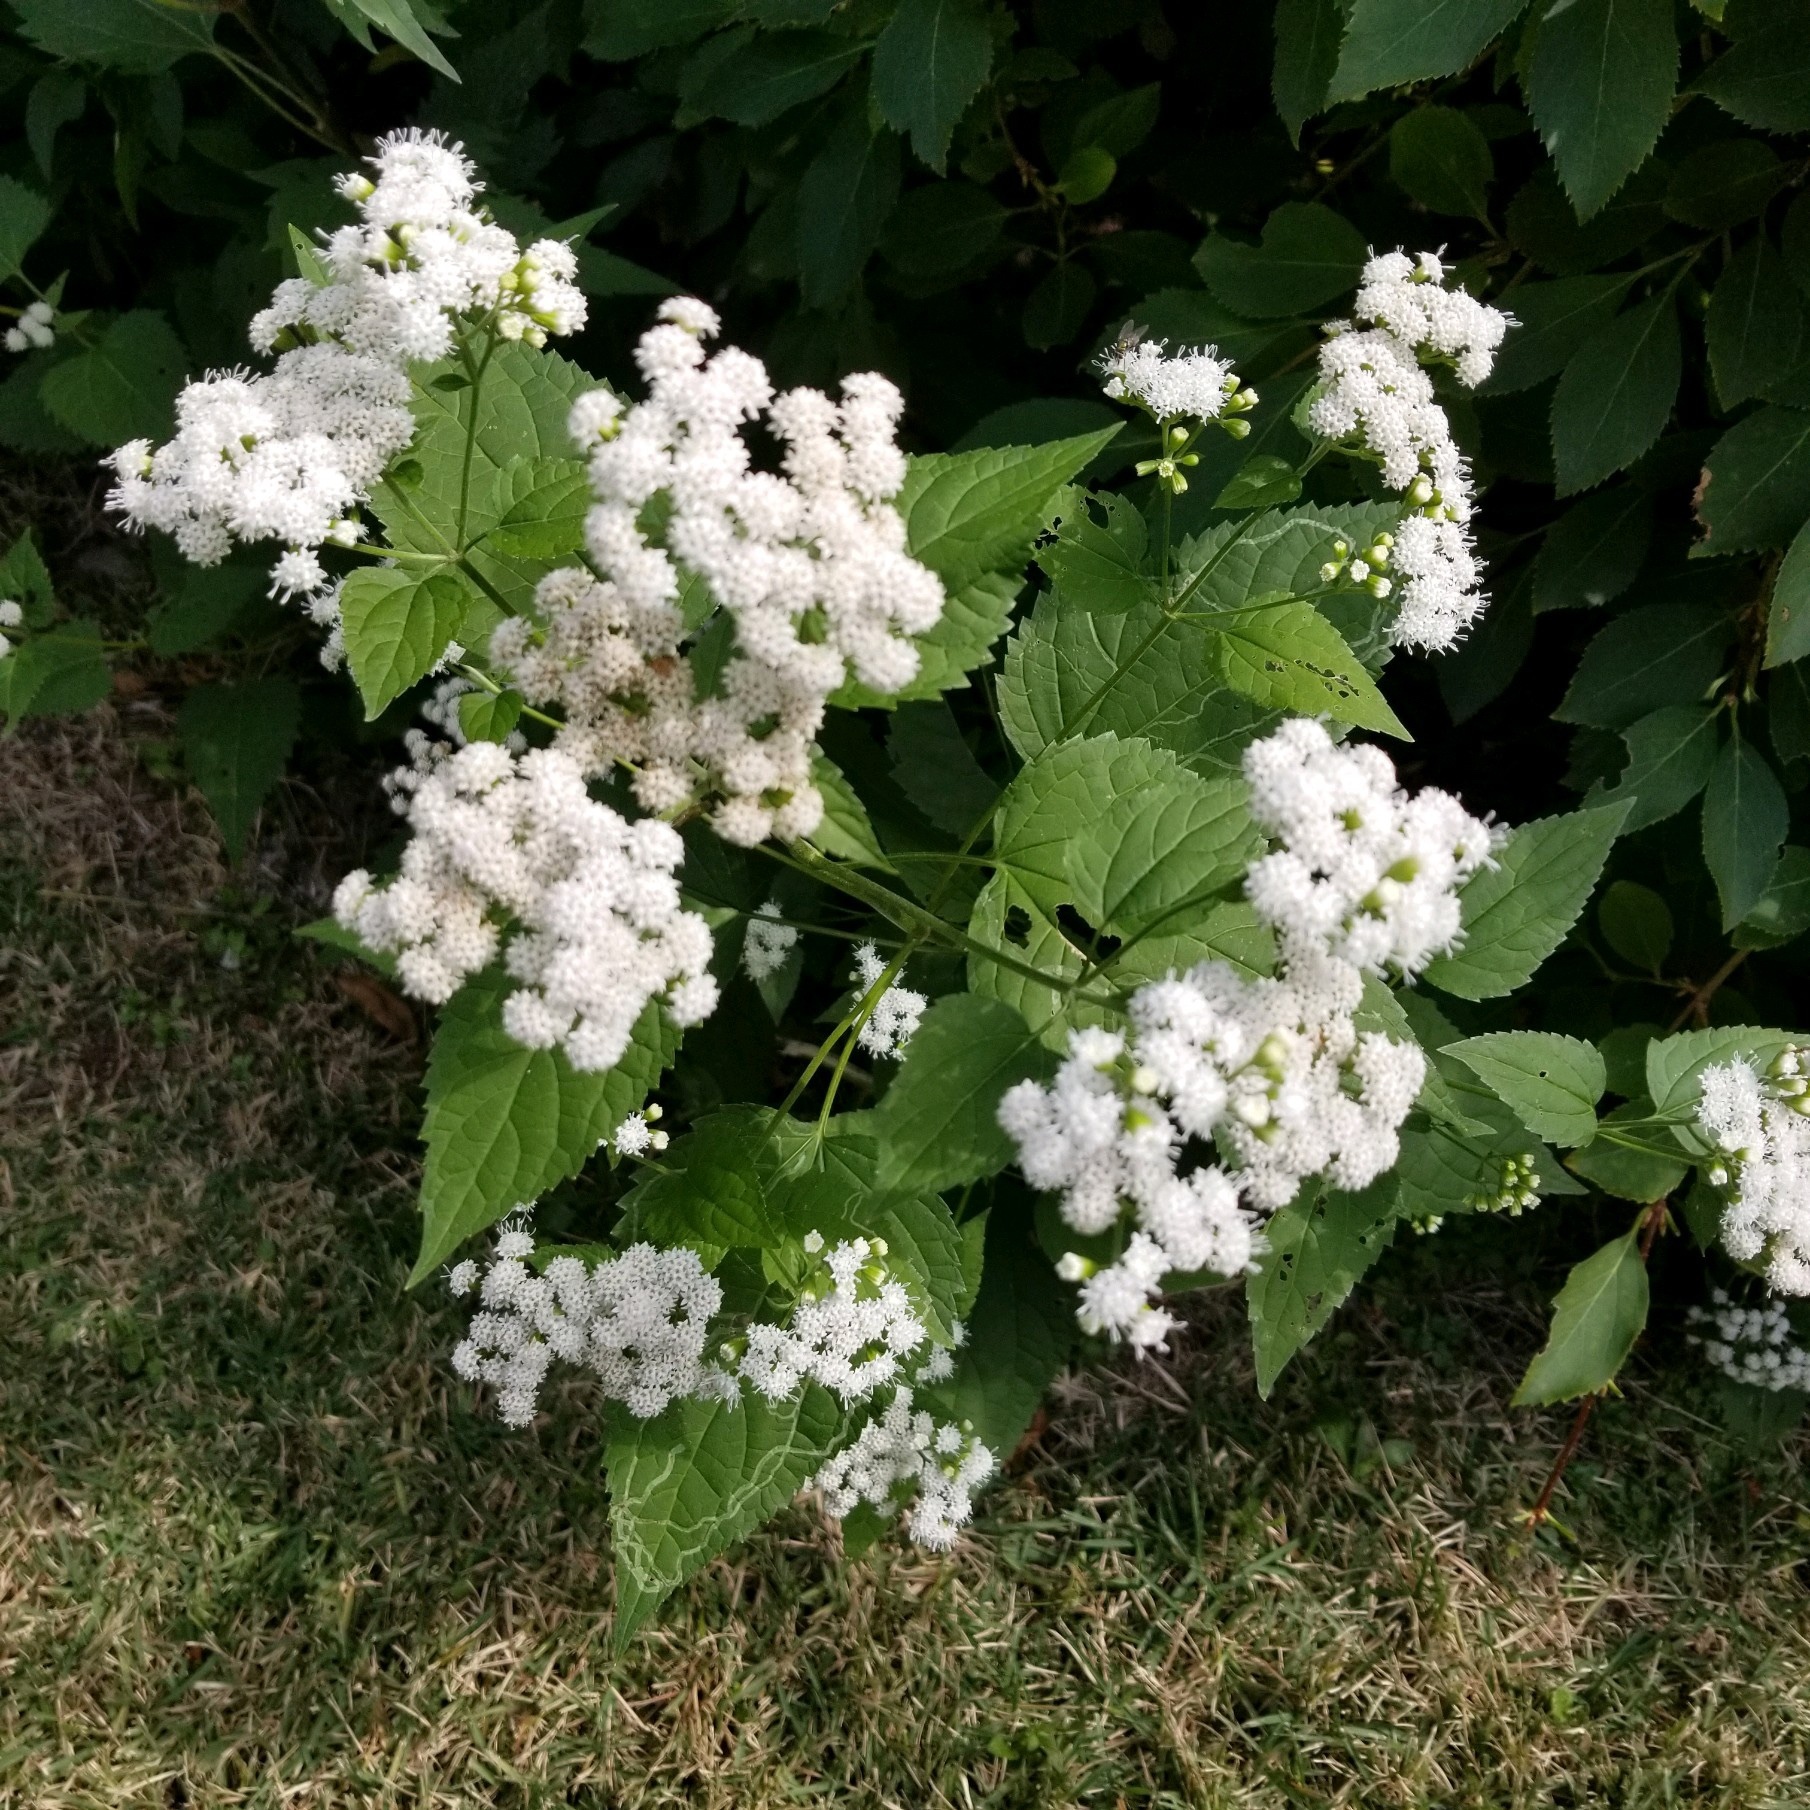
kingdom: Plantae
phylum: Tracheophyta
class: Magnoliopsida
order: Asterales
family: Asteraceae
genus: Ageratina
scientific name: Ageratina altissima
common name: White snakeroot
